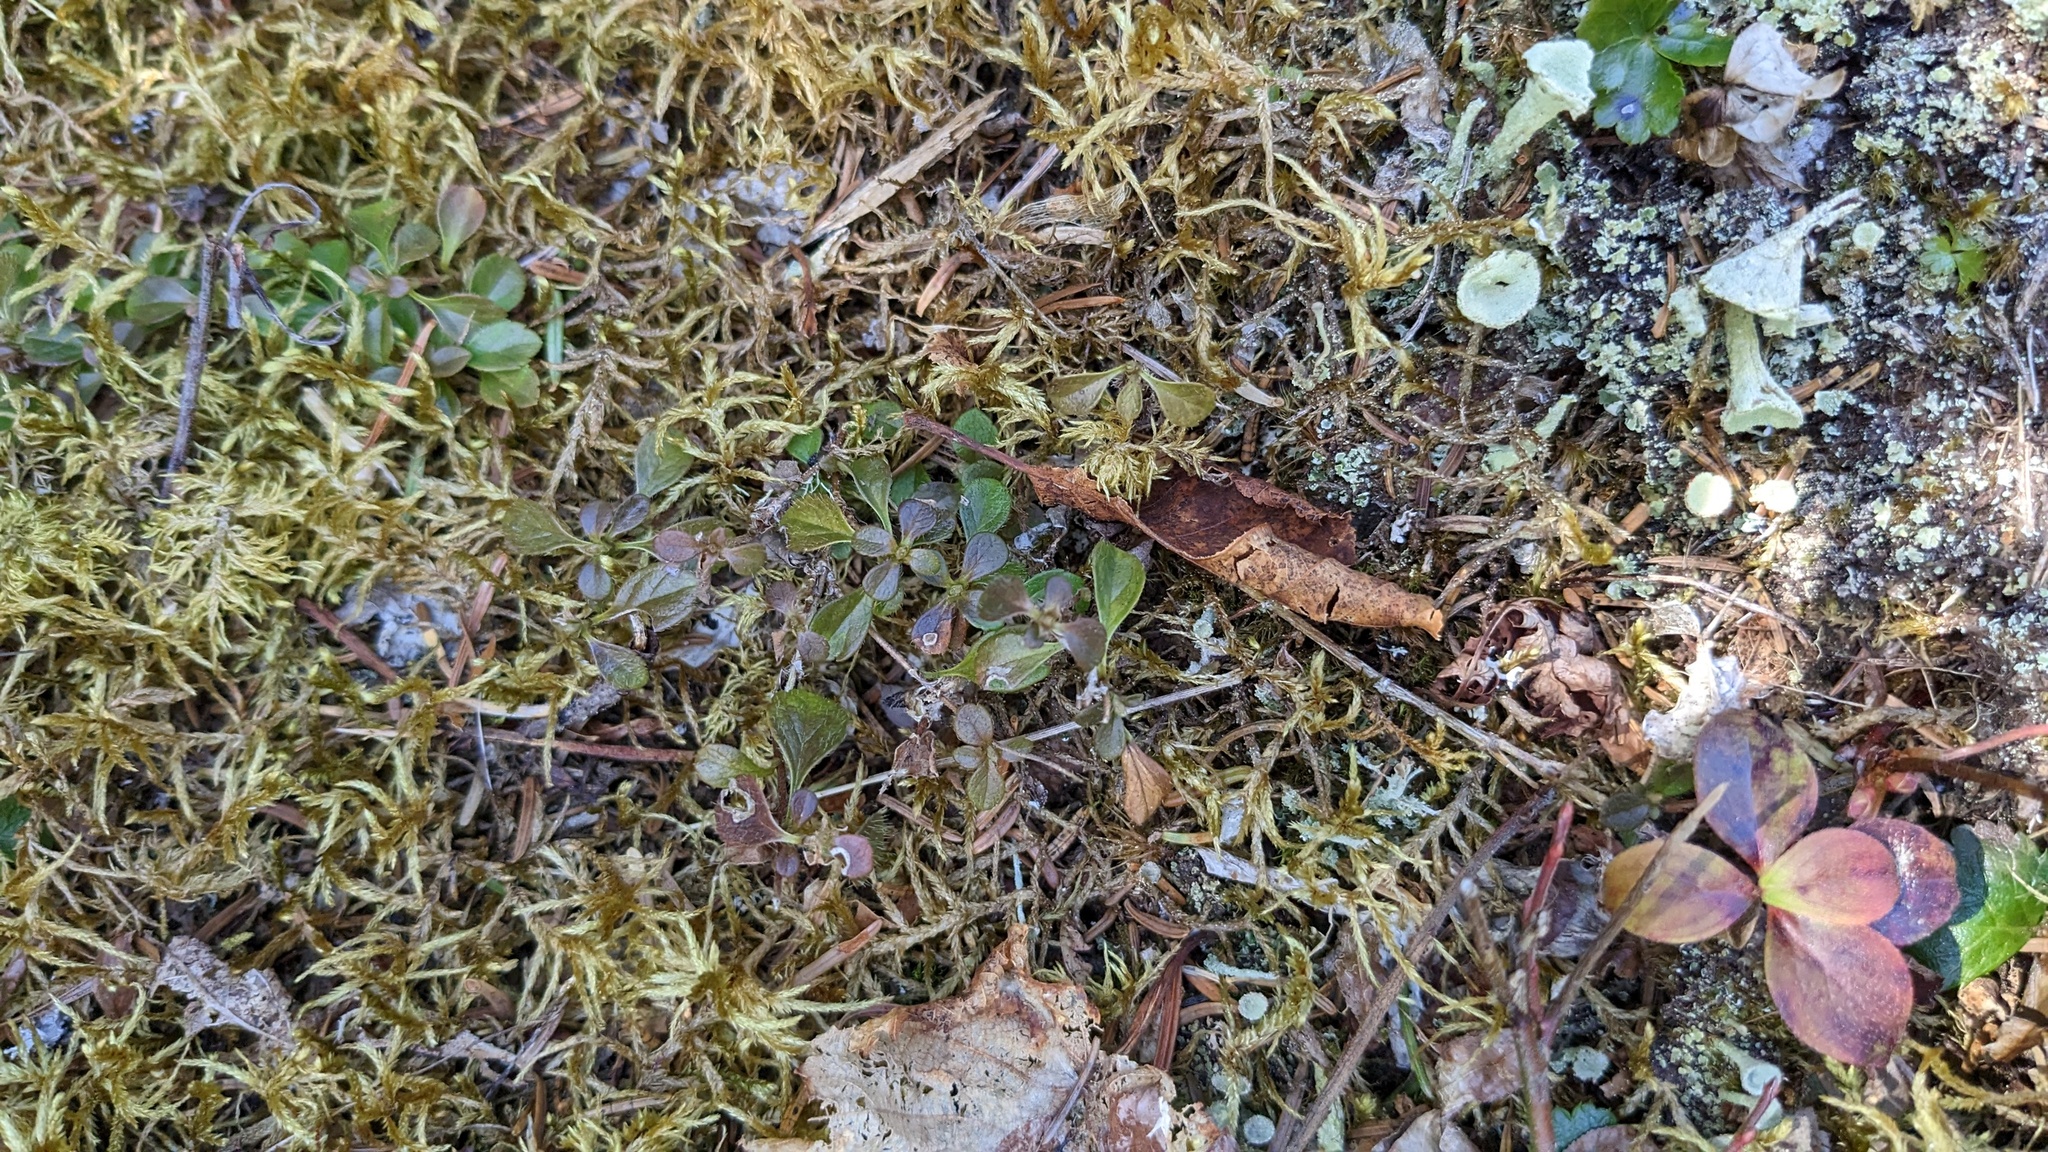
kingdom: Plantae
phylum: Tracheophyta
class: Magnoliopsida
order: Dipsacales
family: Caprifoliaceae
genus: Linnaea
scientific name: Linnaea borealis
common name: Twinflower
